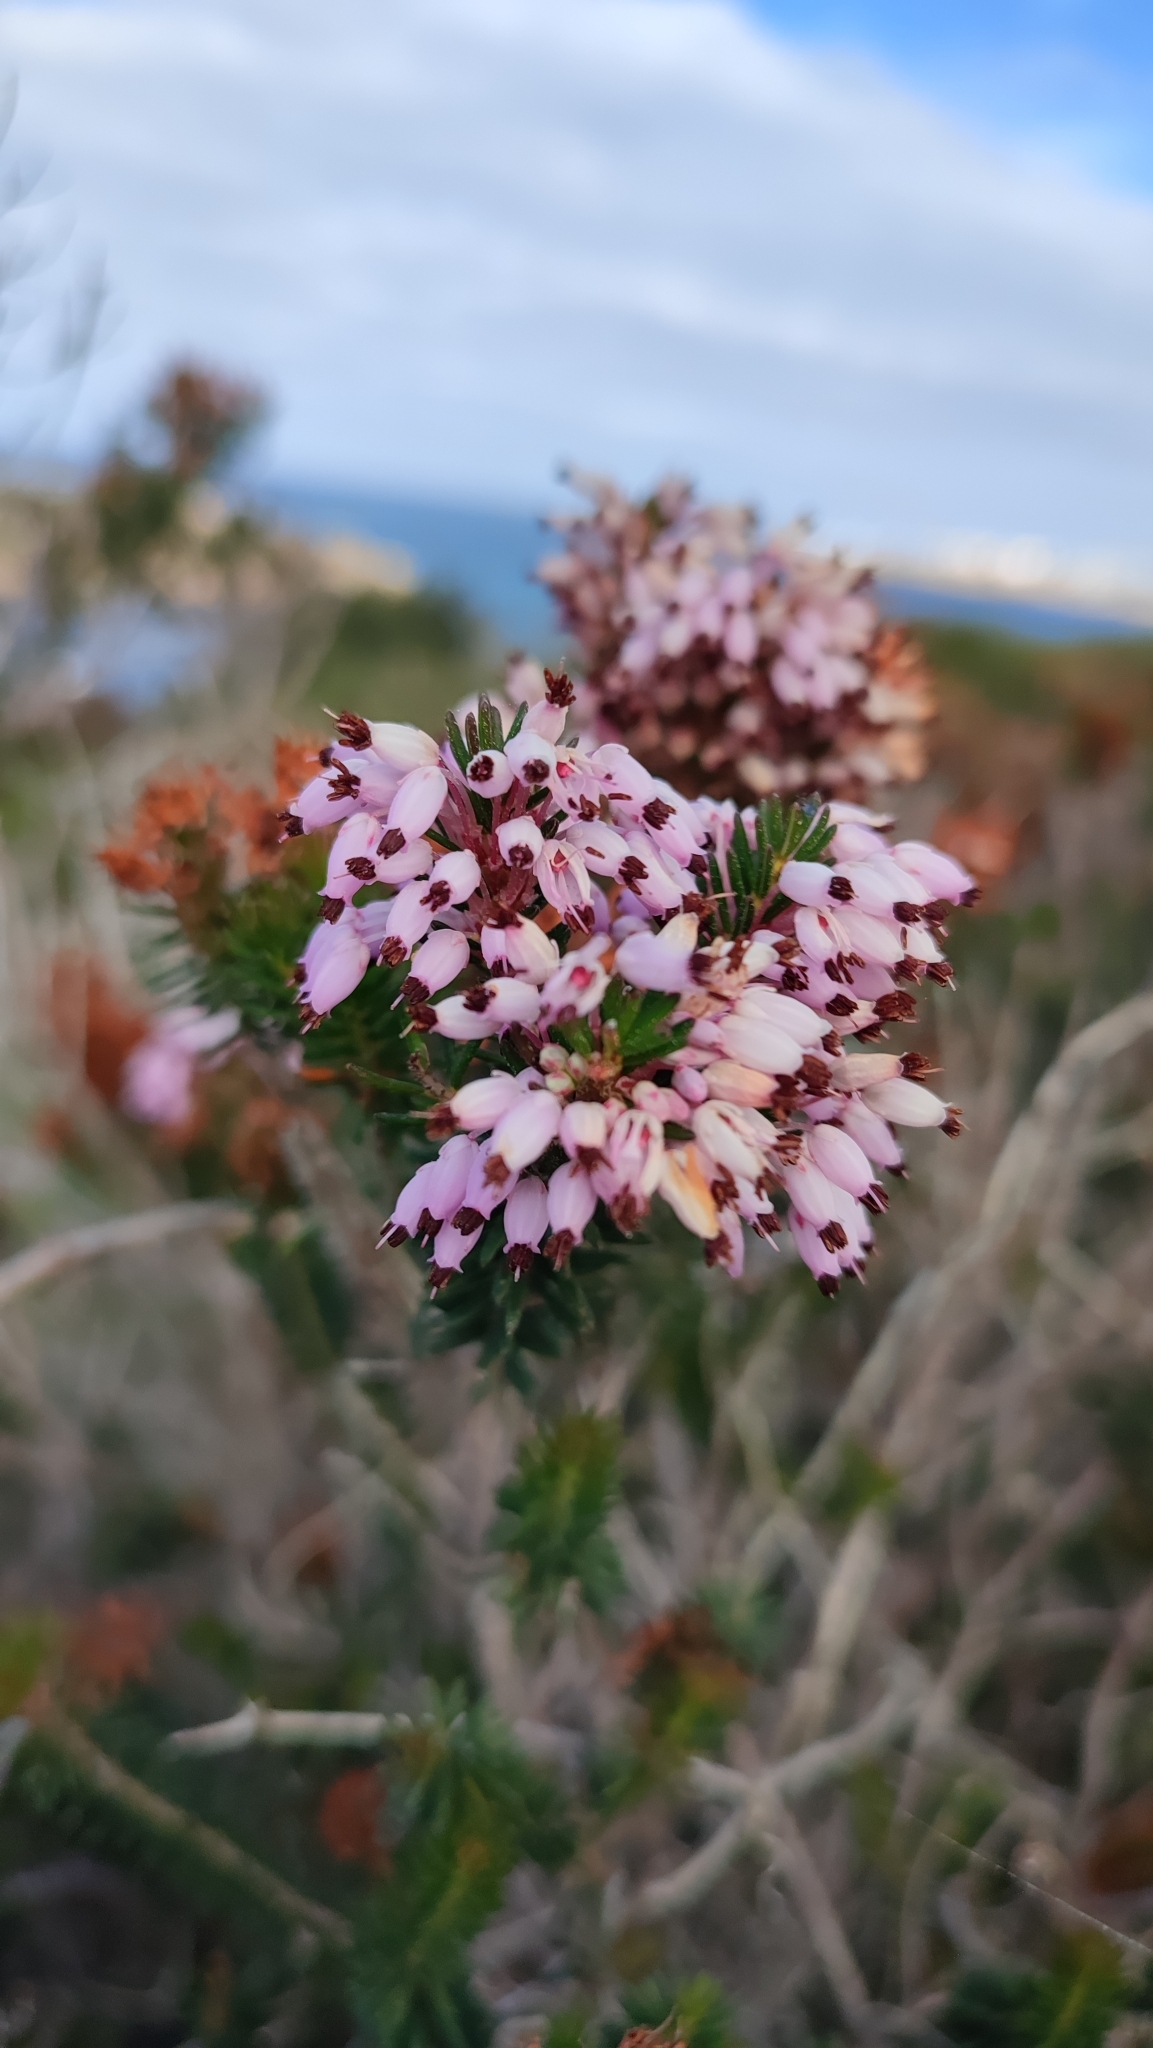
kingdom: Plantae
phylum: Tracheophyta
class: Magnoliopsida
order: Ericales
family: Ericaceae
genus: Erica
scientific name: Erica multiflora
